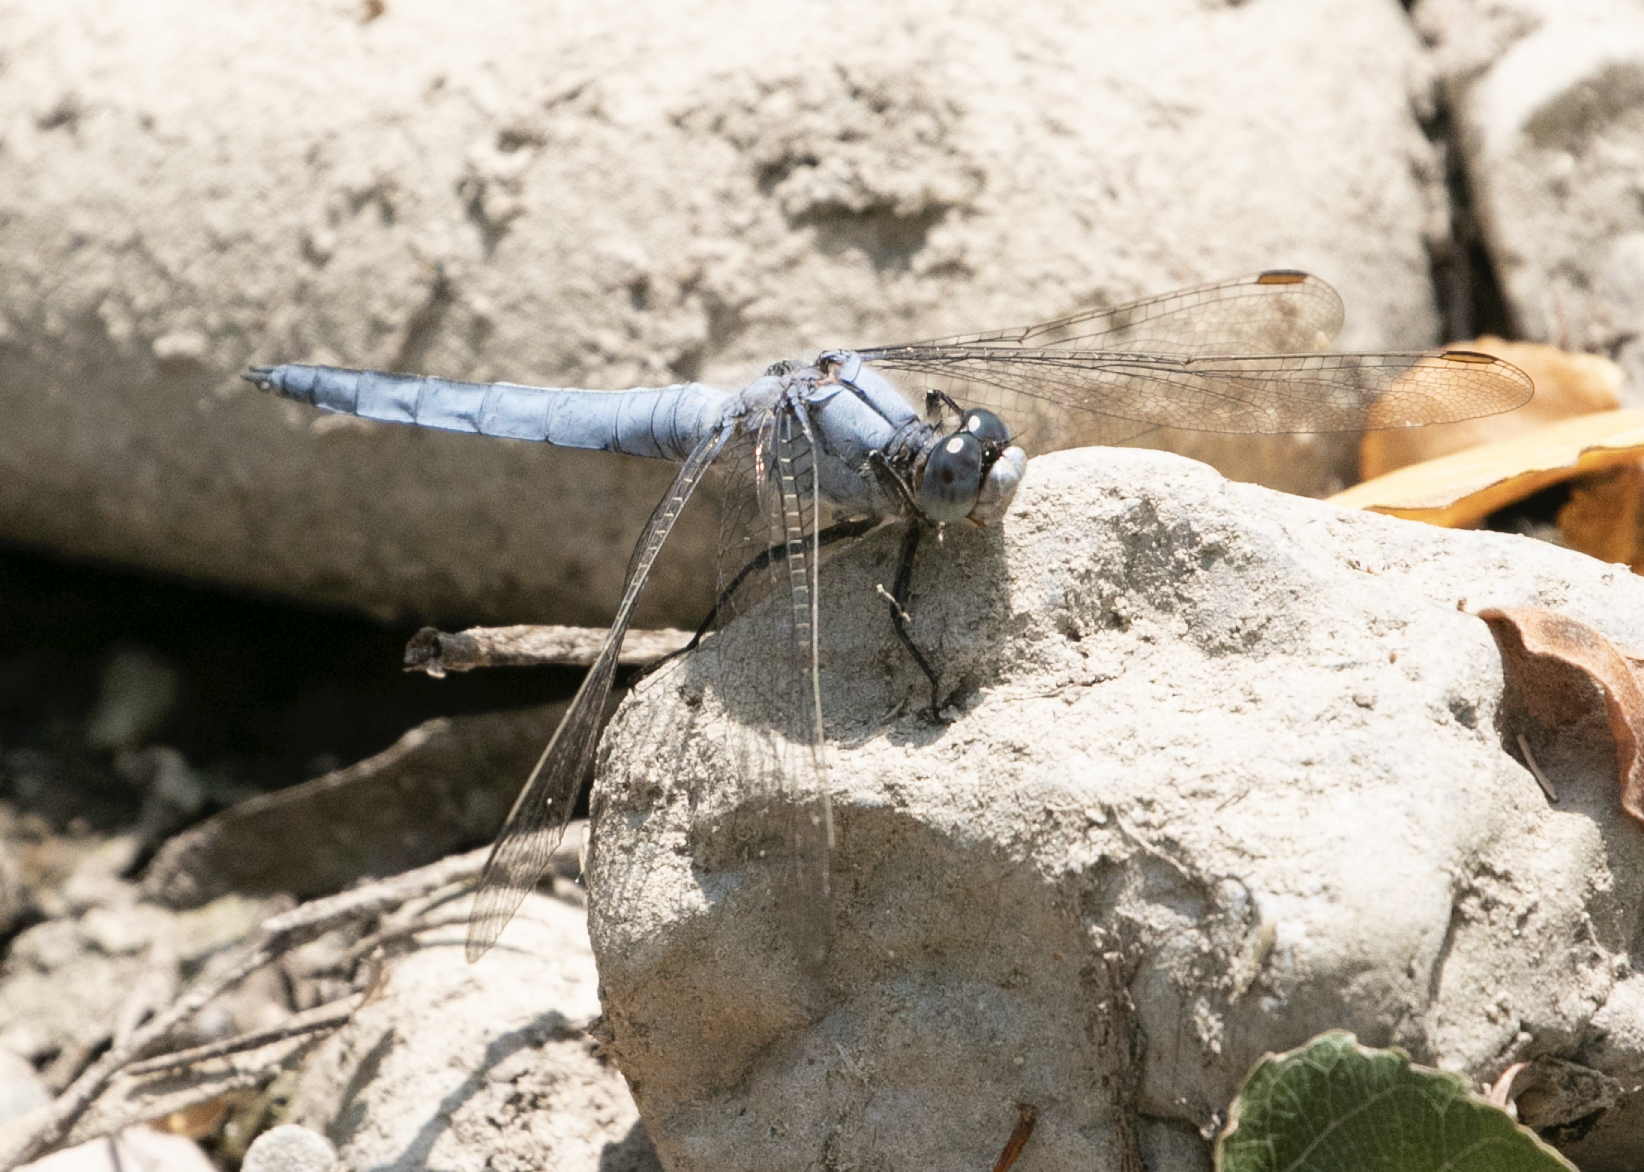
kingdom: Animalia
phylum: Arthropoda
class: Insecta
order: Odonata
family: Libellulidae
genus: Orthetrum
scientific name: Orthetrum brunneum
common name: Southern skimmer
